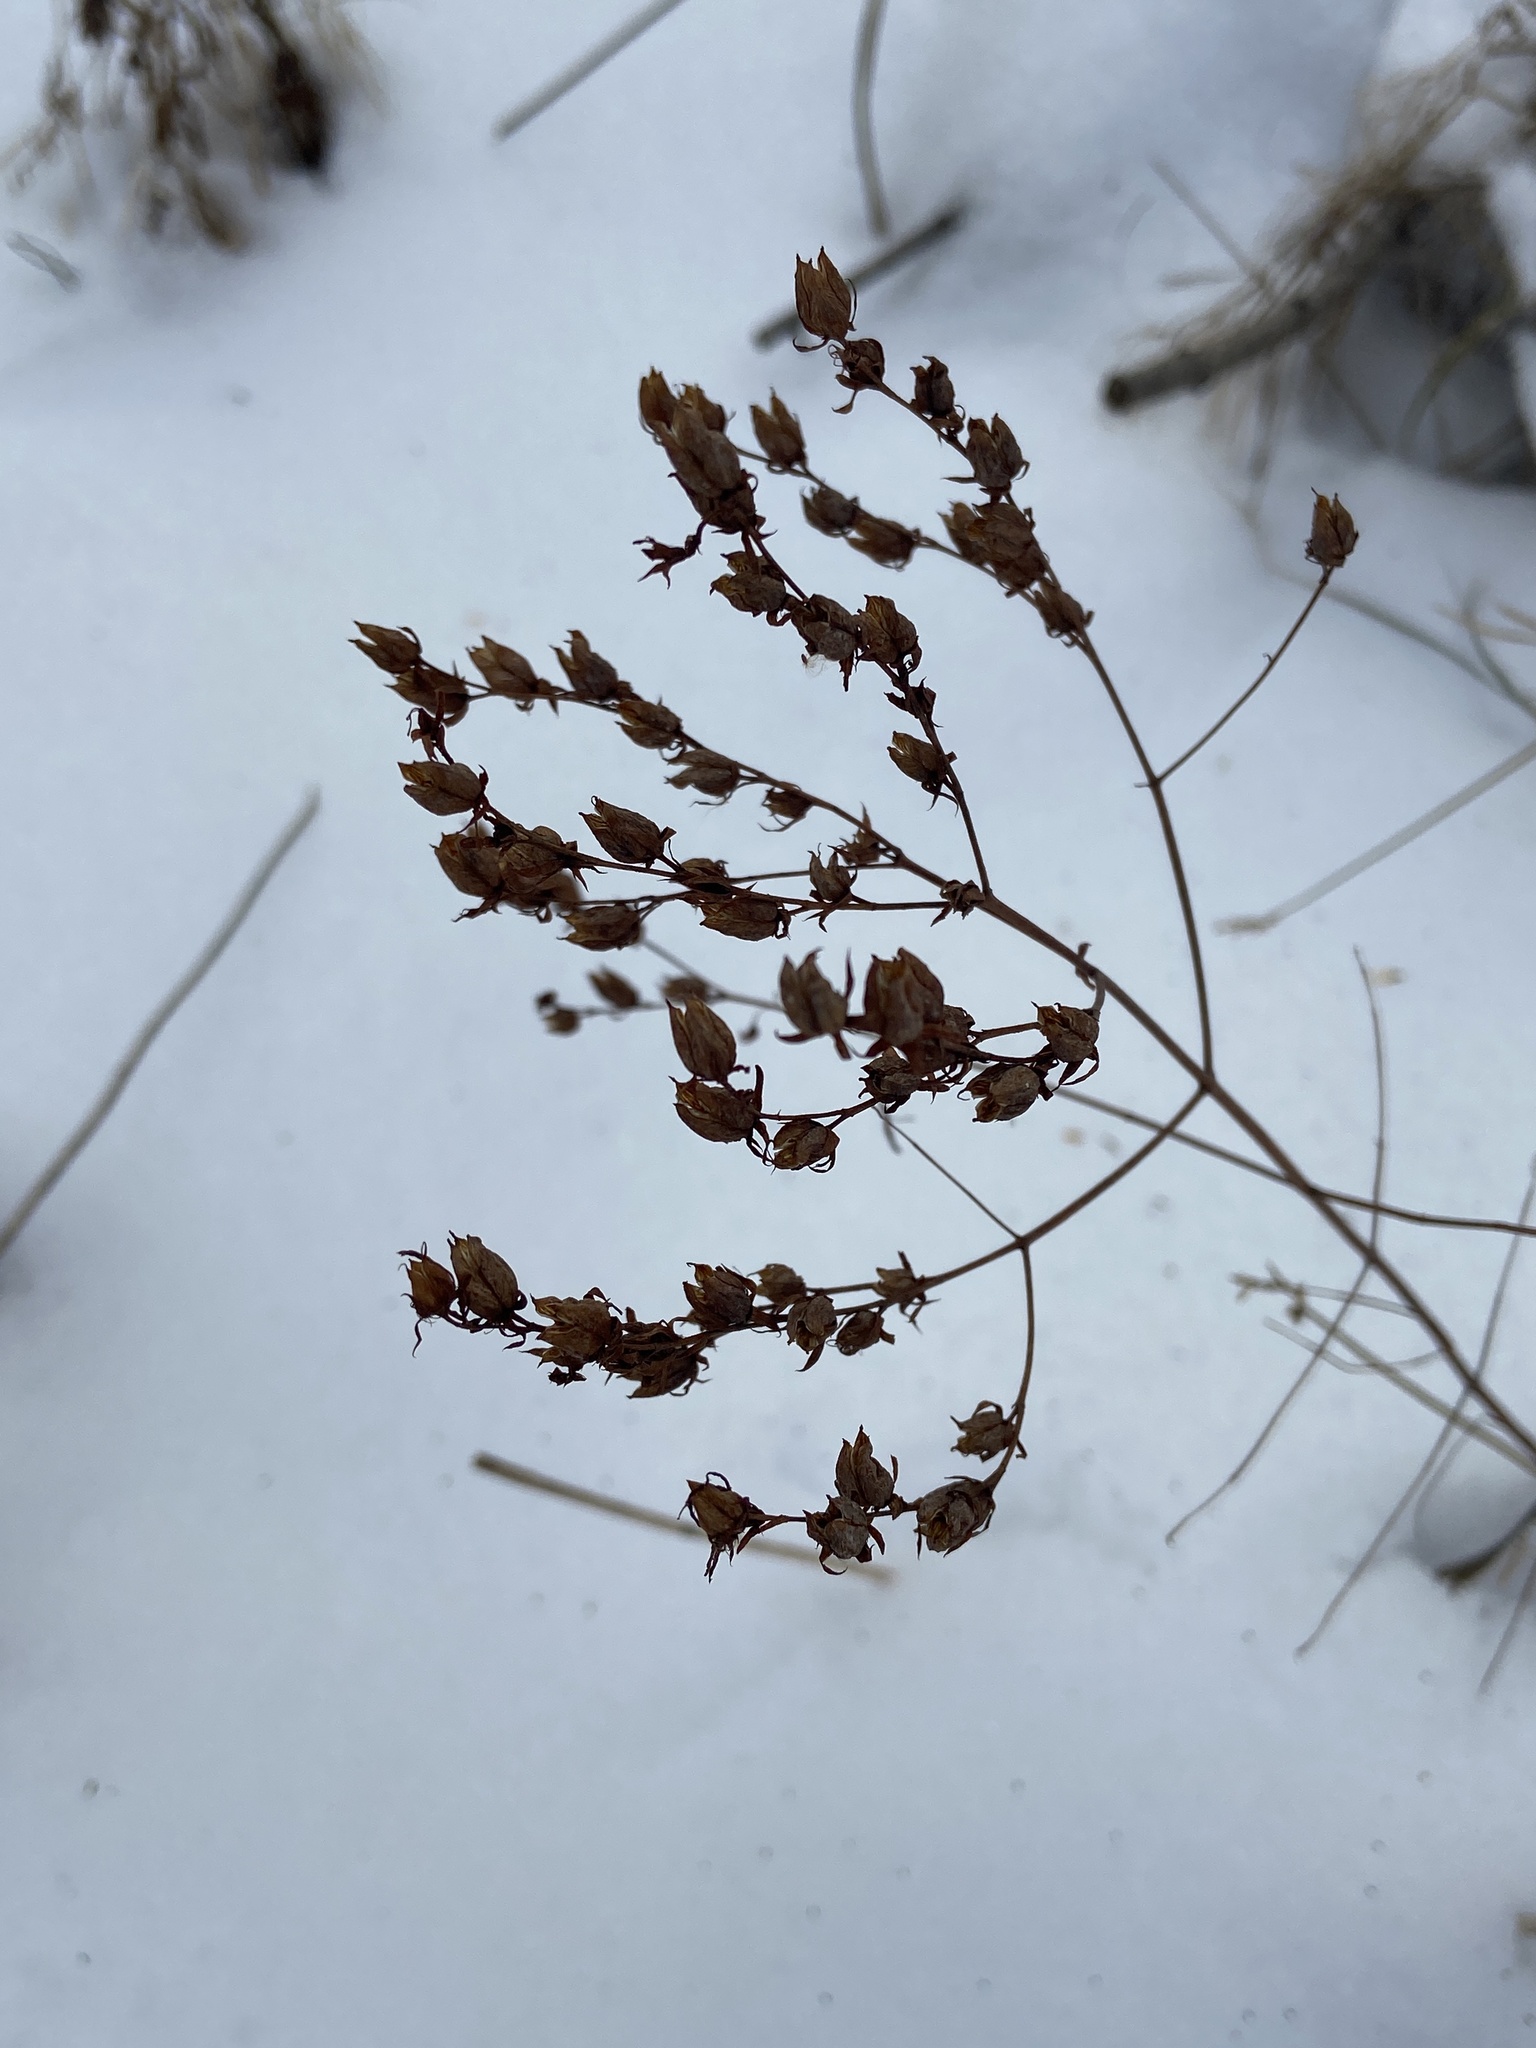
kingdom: Plantae
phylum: Tracheophyta
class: Magnoliopsida
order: Malpighiales
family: Hypericaceae
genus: Hypericum
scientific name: Hypericum perforatum
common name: Common st. johnswort
